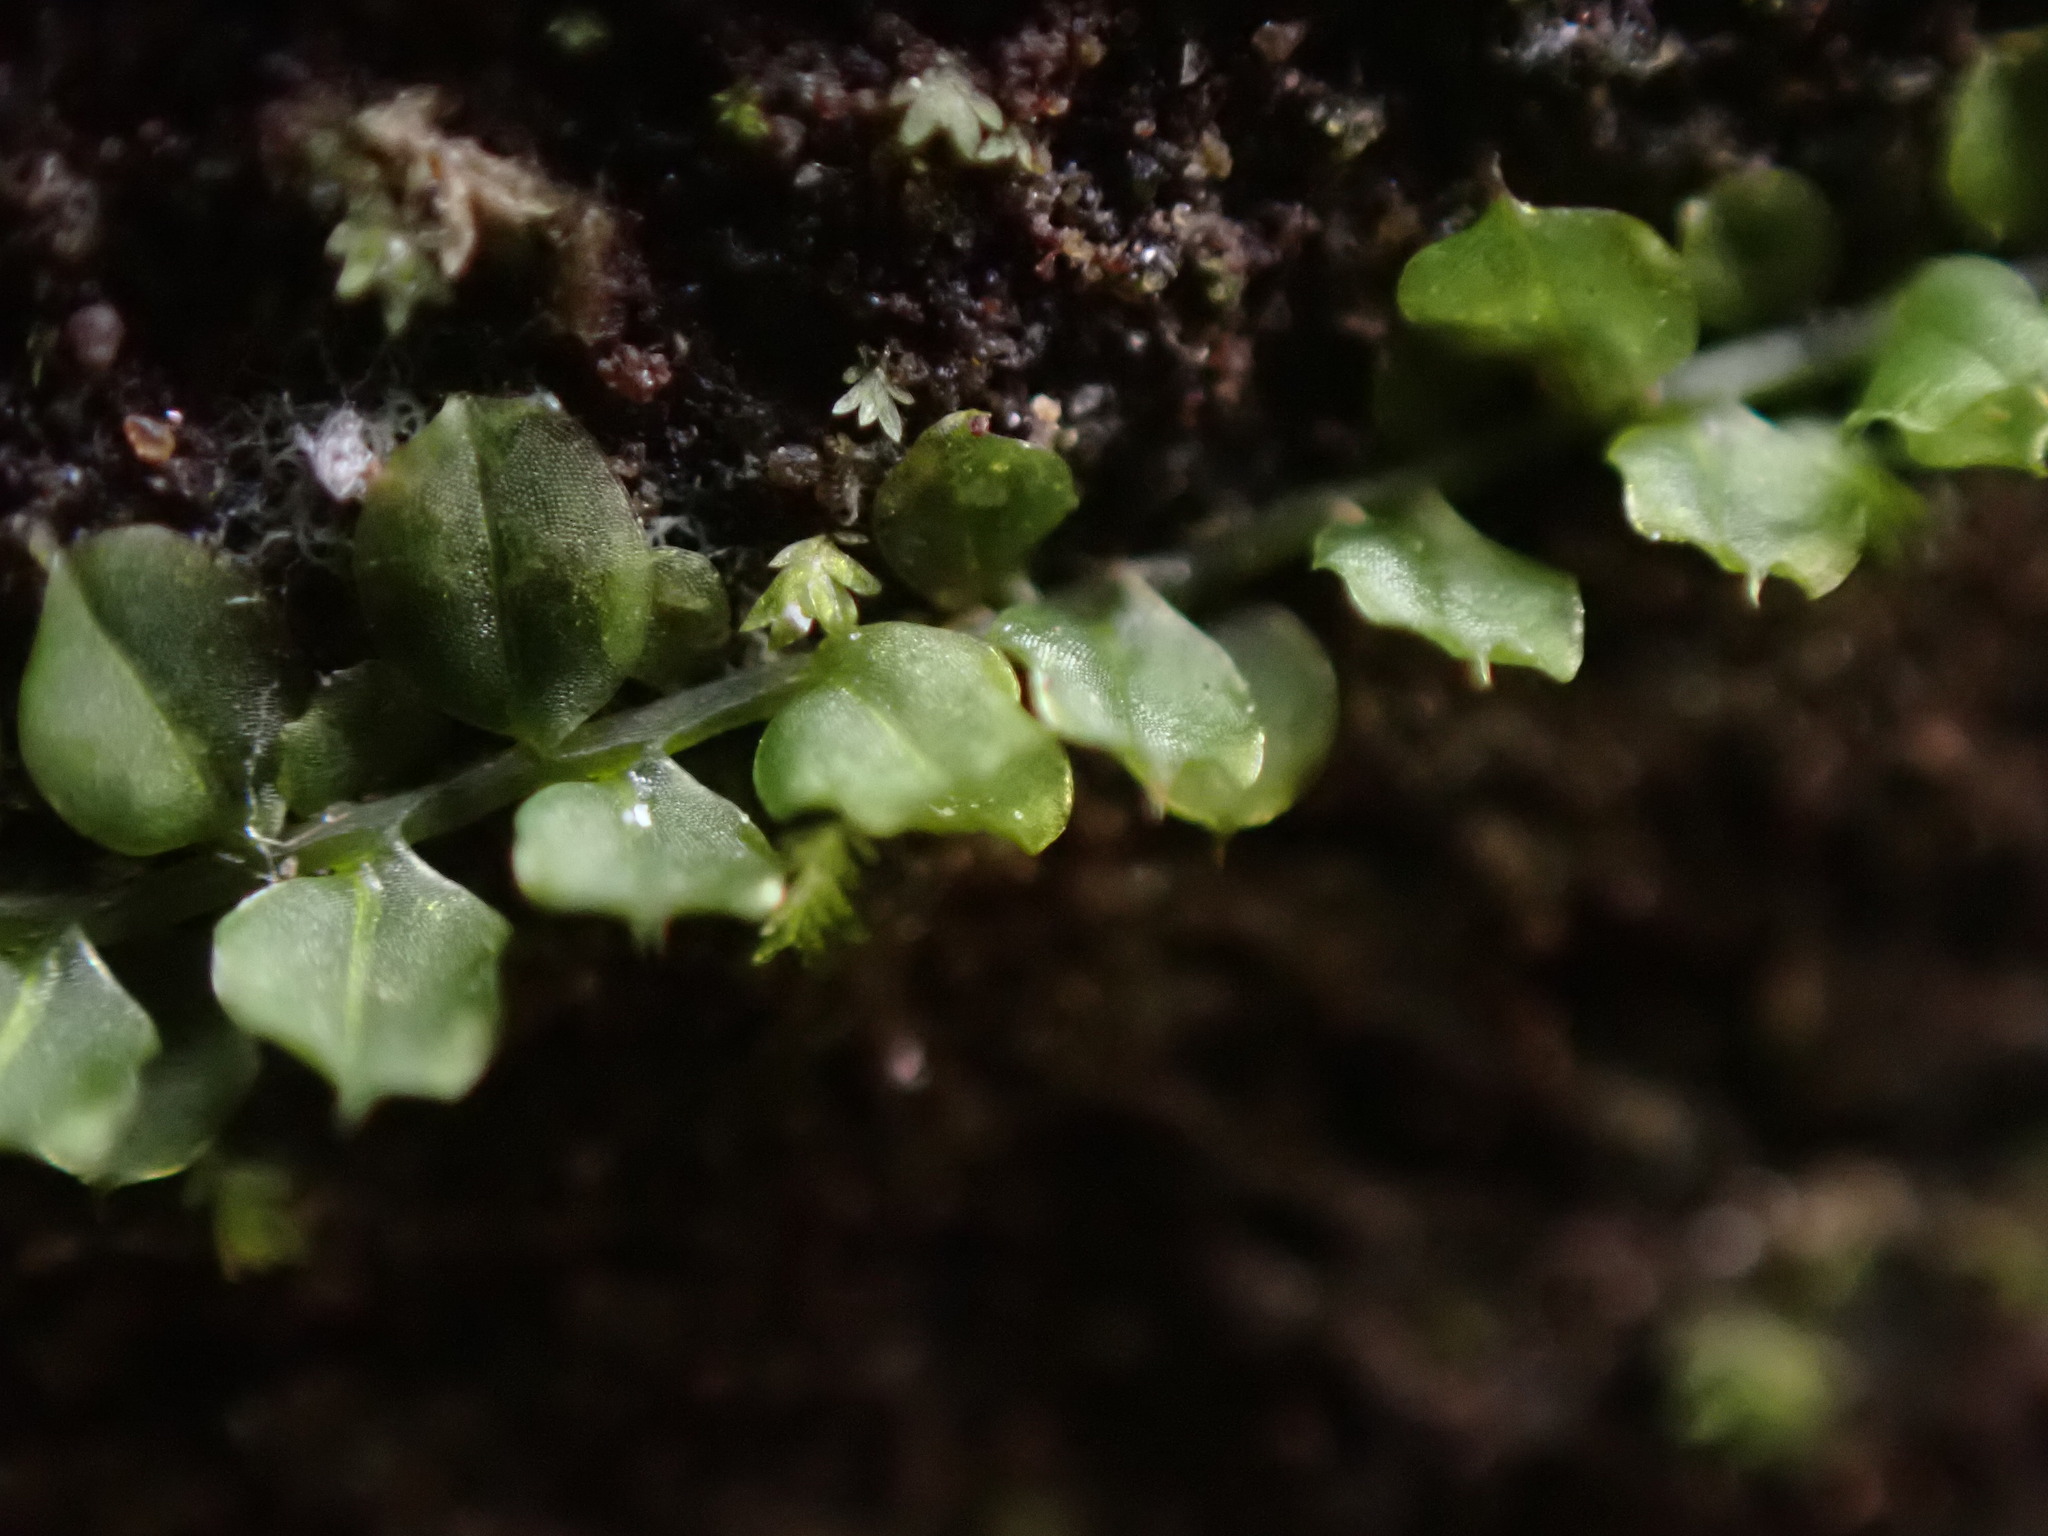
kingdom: Plantae
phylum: Bryophyta
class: Bryopsida
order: Bryales
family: Mniaceae
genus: Plagiomnium
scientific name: Plagiomnium cuspidatum
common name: Woodsy leafy moss
